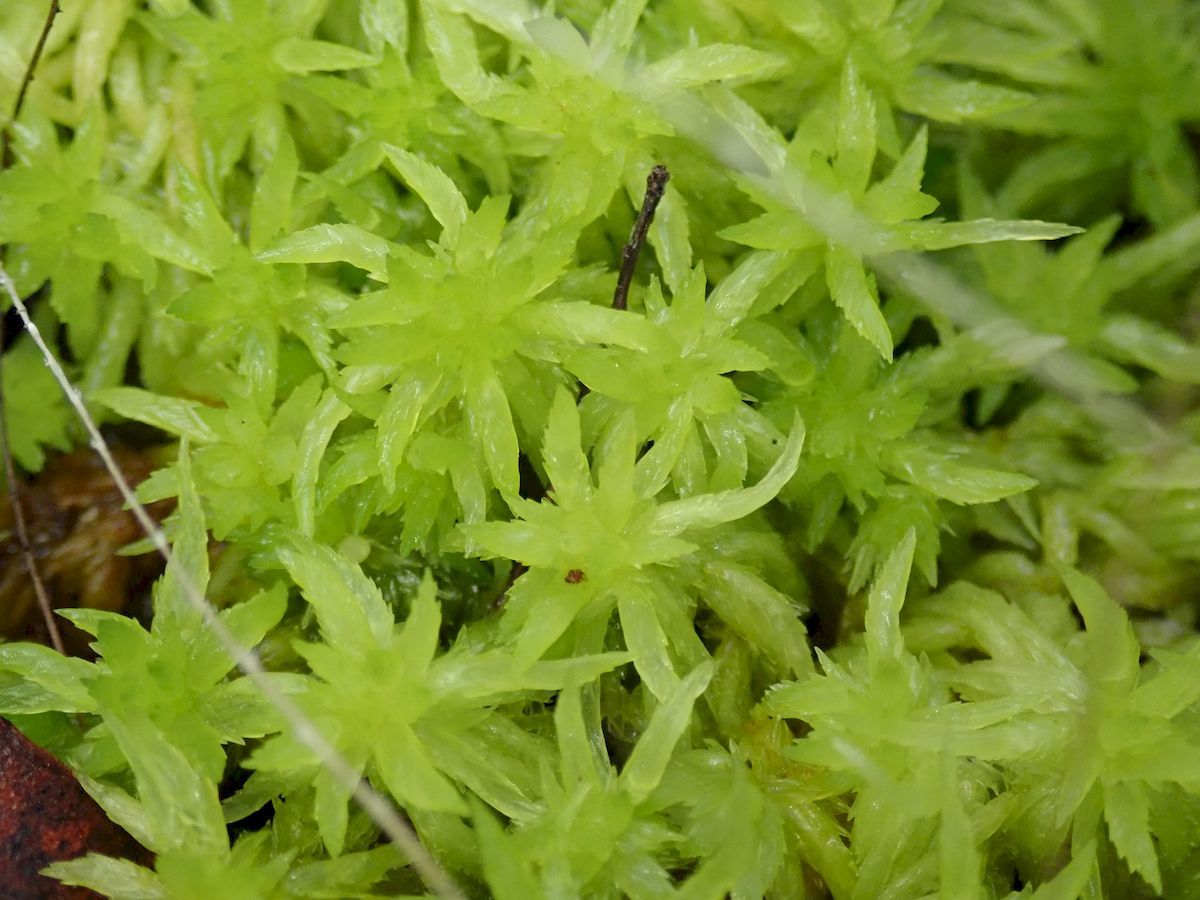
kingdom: Plantae
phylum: Bryophyta
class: Sphagnopsida
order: Sphagnales
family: Sphagnaceae
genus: Sphagnum
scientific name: Sphagnum cristatum
